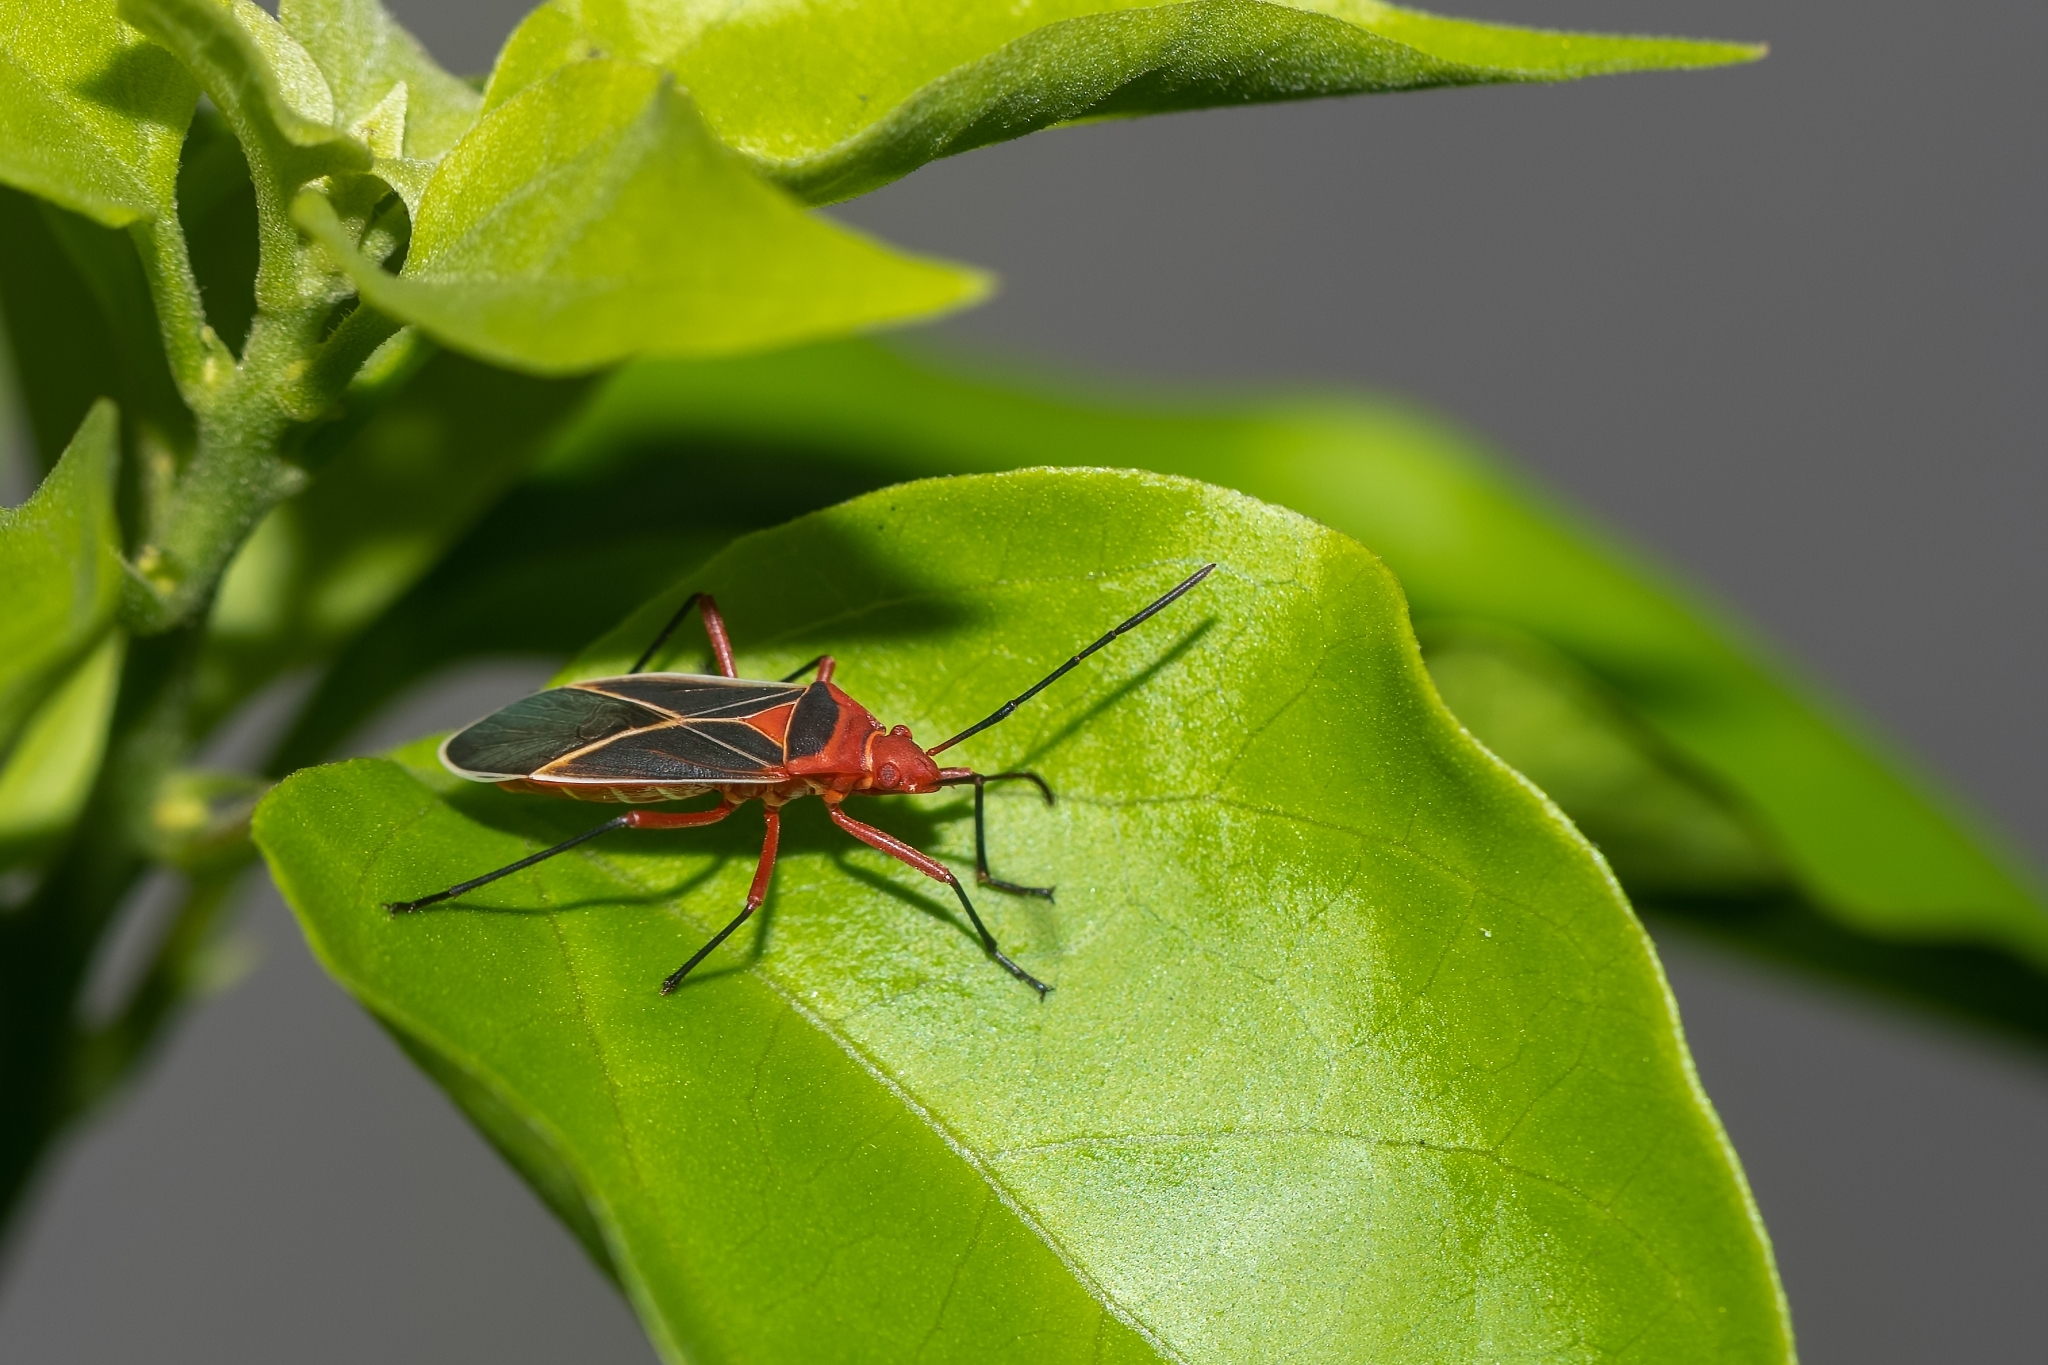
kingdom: Animalia
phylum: Arthropoda
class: Insecta
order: Hemiptera
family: Pyrrhocoridae
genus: Dysdercus
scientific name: Dysdercus suturellus
